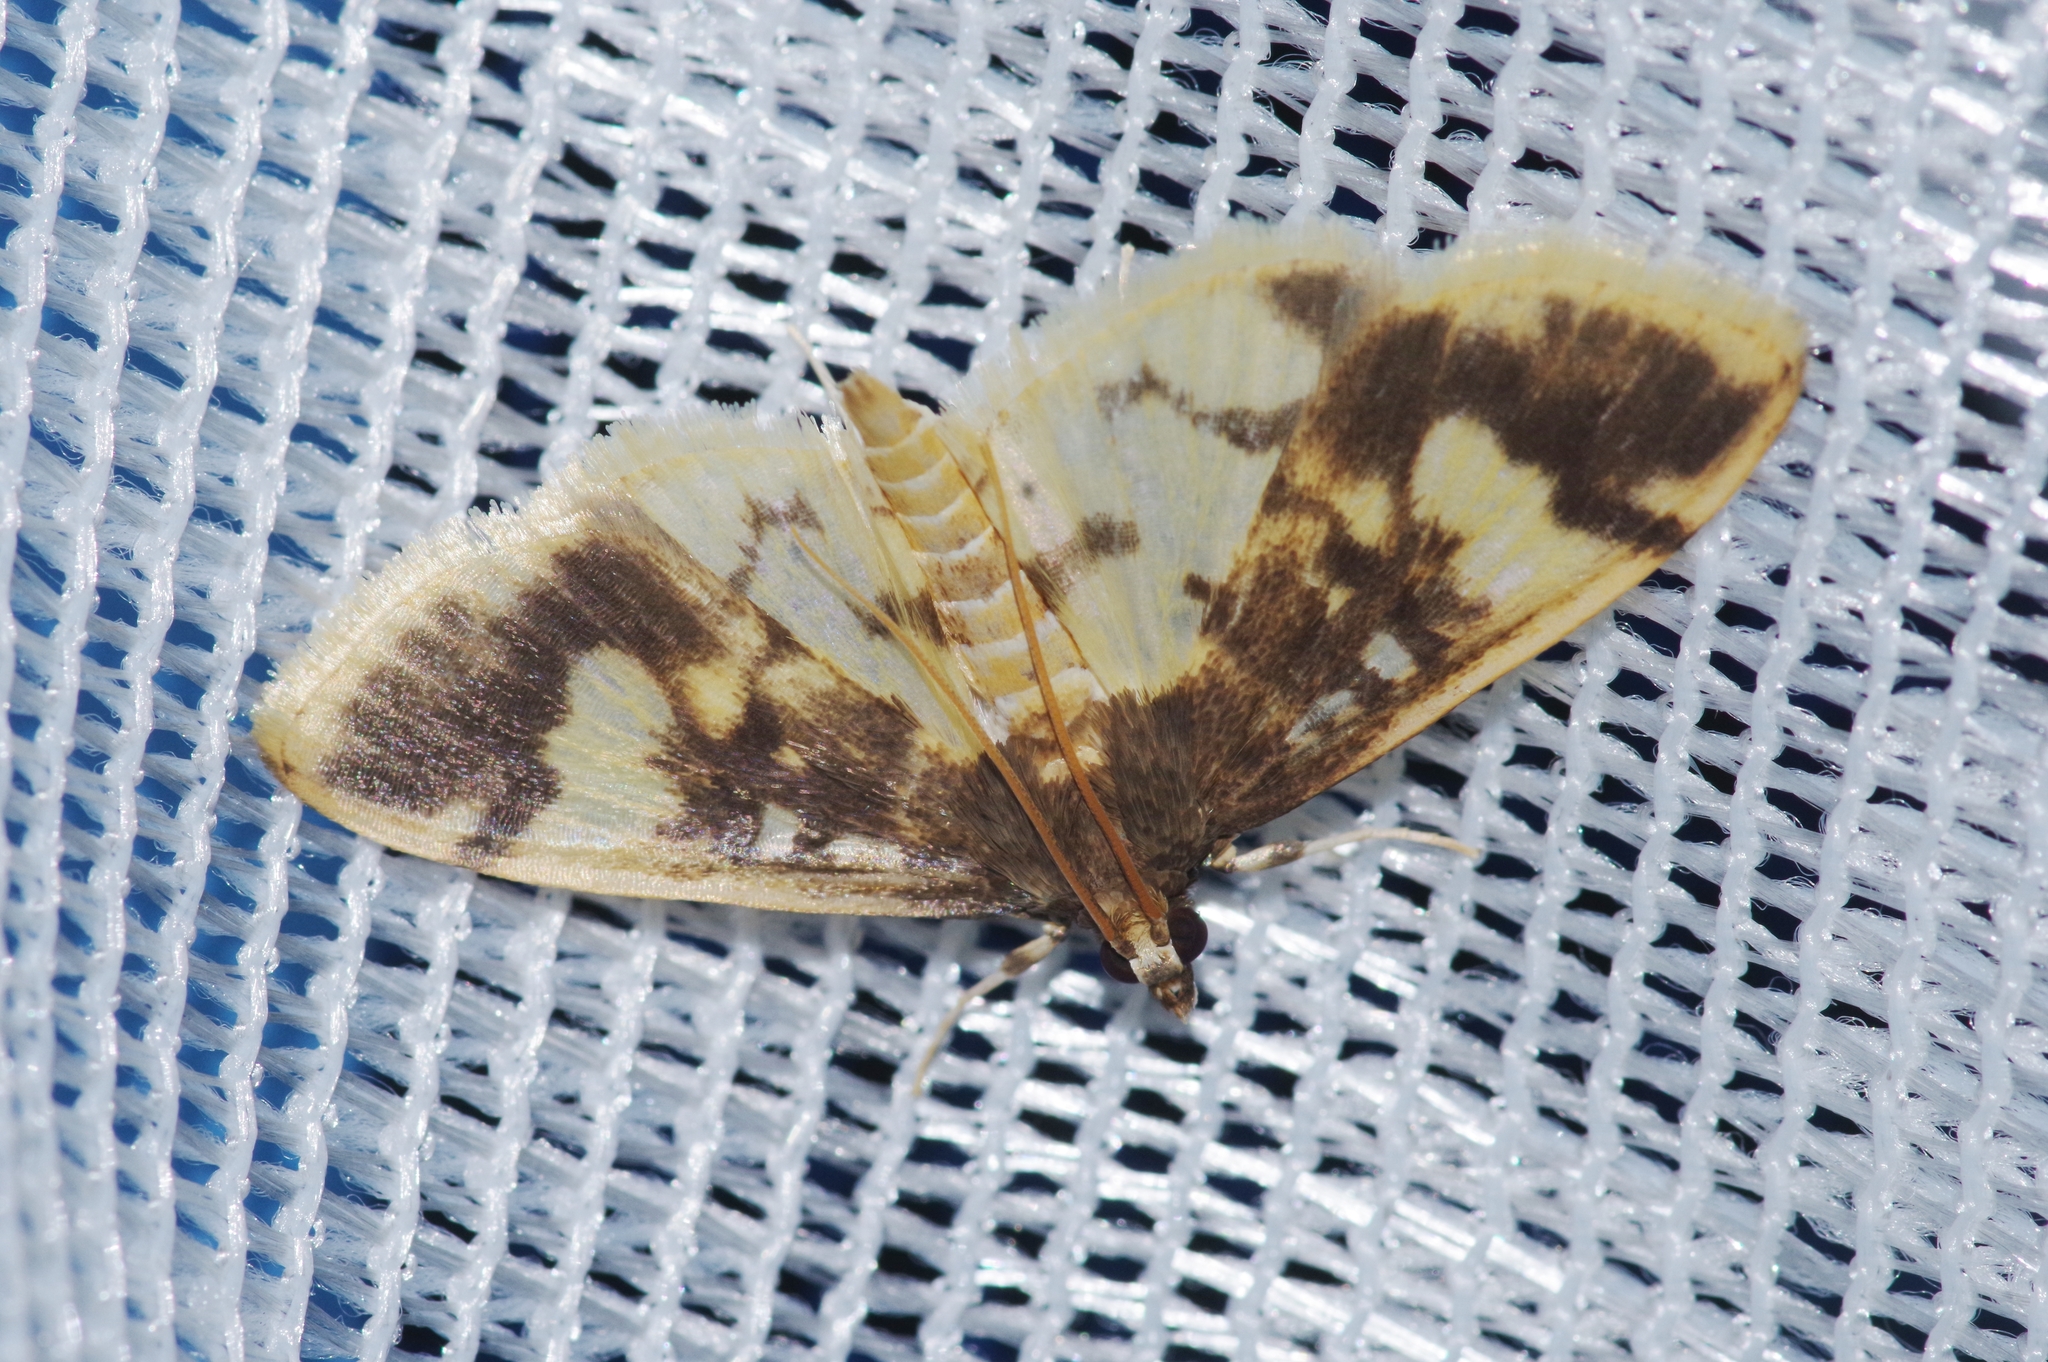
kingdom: Animalia
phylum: Arthropoda
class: Insecta
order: Lepidoptera
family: Crambidae
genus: Pseudebulea
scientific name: Pseudebulea fentoni
